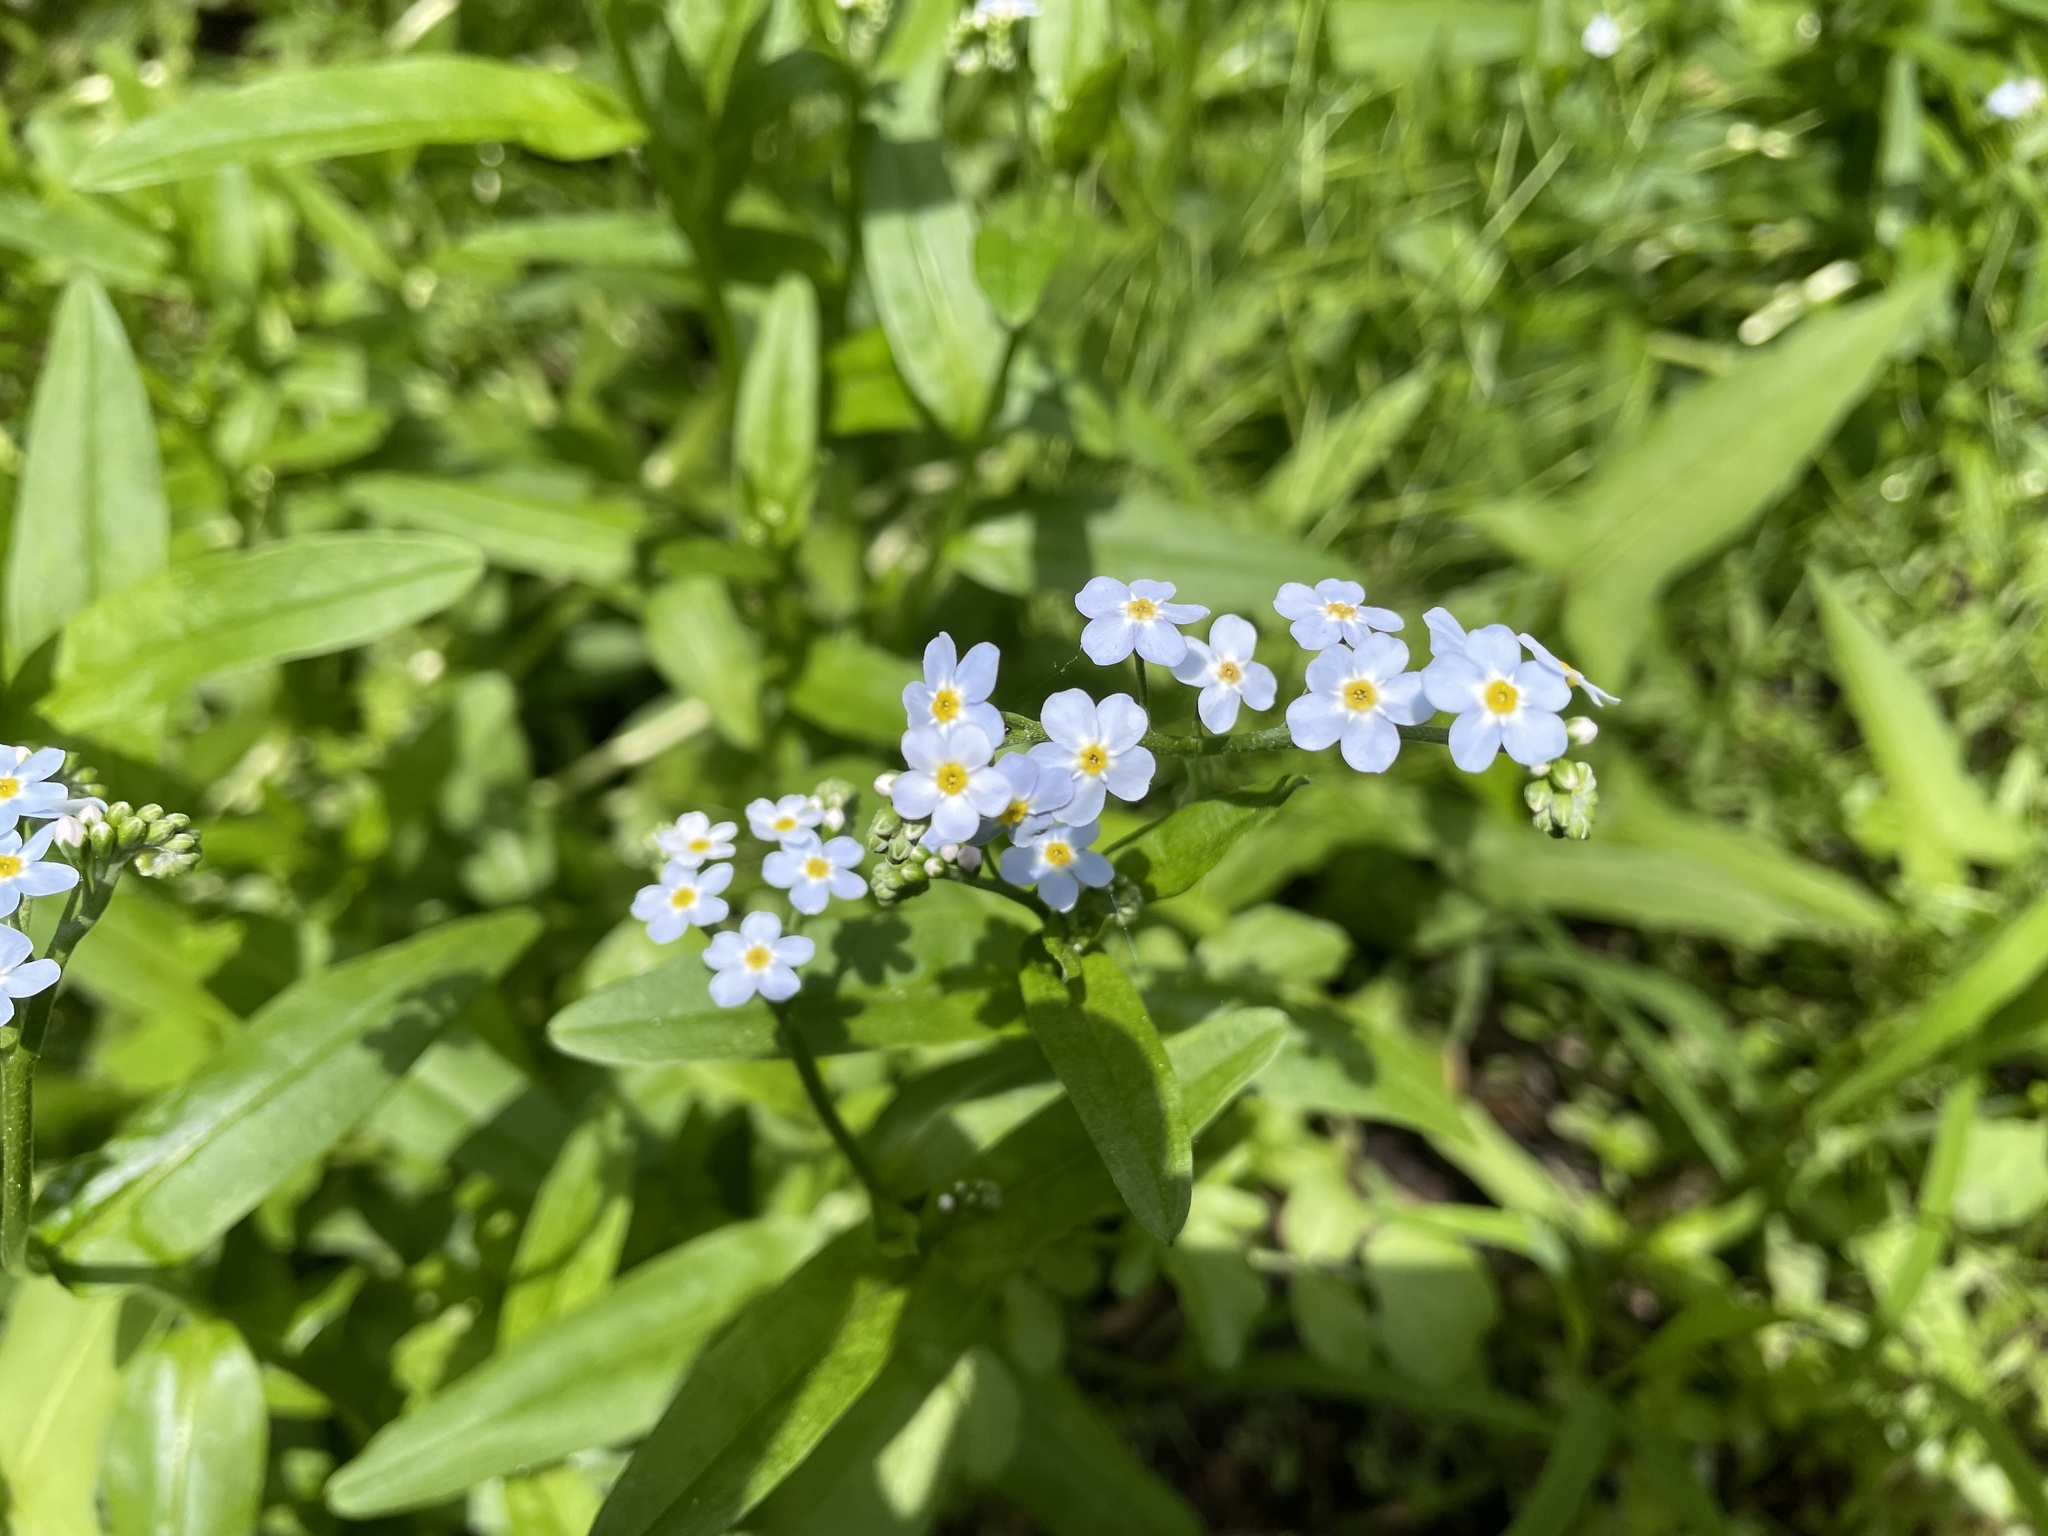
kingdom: Plantae
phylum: Tracheophyta
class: Magnoliopsida
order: Boraginales
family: Boraginaceae
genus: Myosotis
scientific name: Myosotis scorpioides
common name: Water forget-me-not
